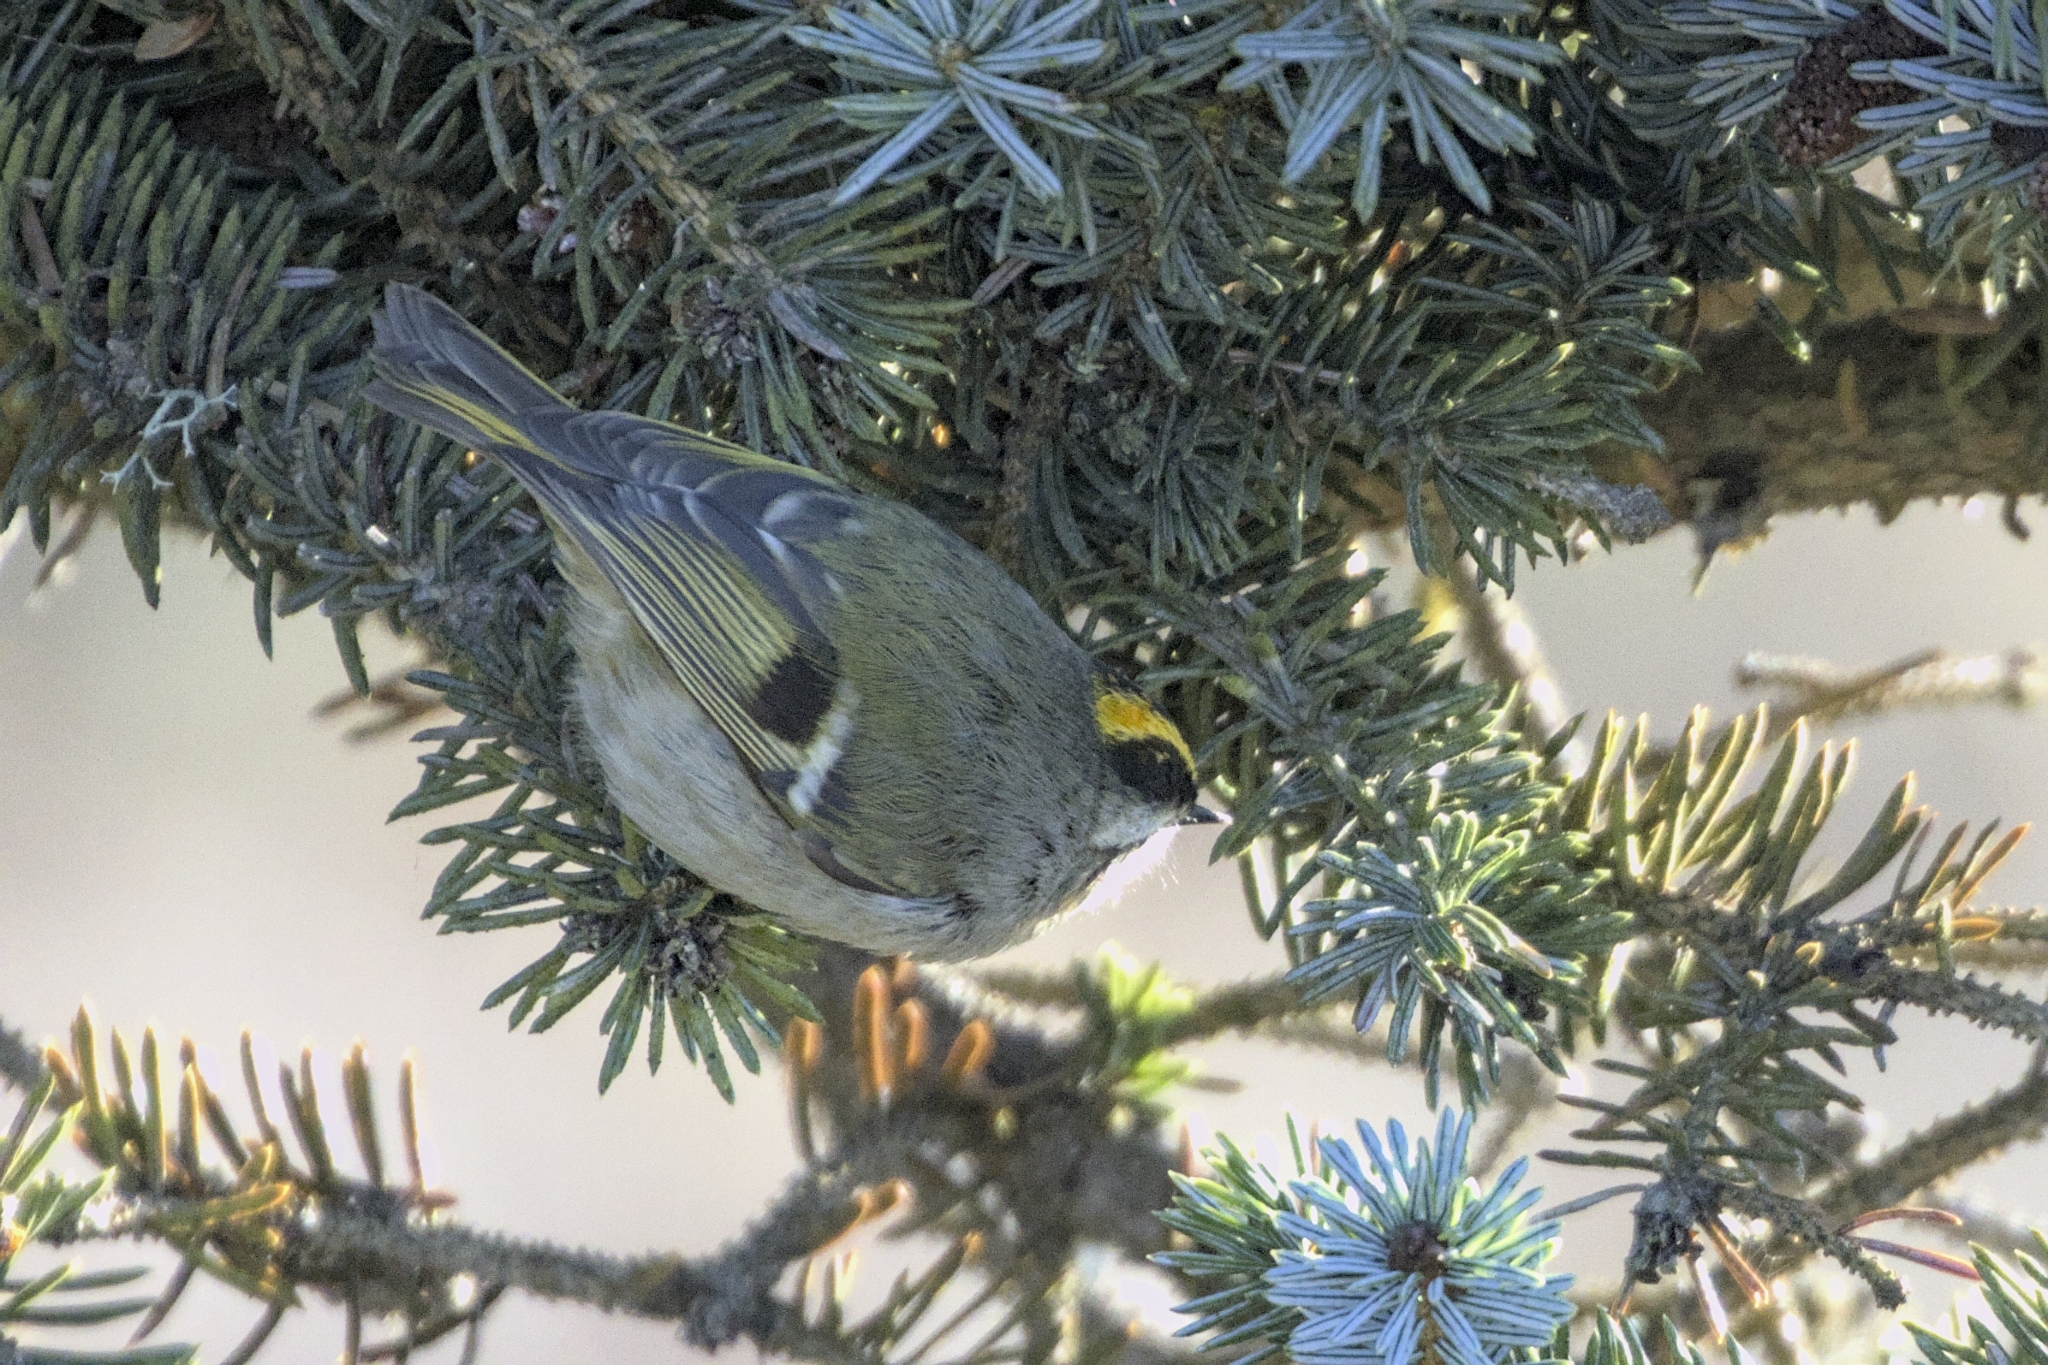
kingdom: Animalia
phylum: Chordata
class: Aves
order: Passeriformes
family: Regulidae
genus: Regulus
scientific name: Regulus satrapa
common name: Golden-crowned kinglet
